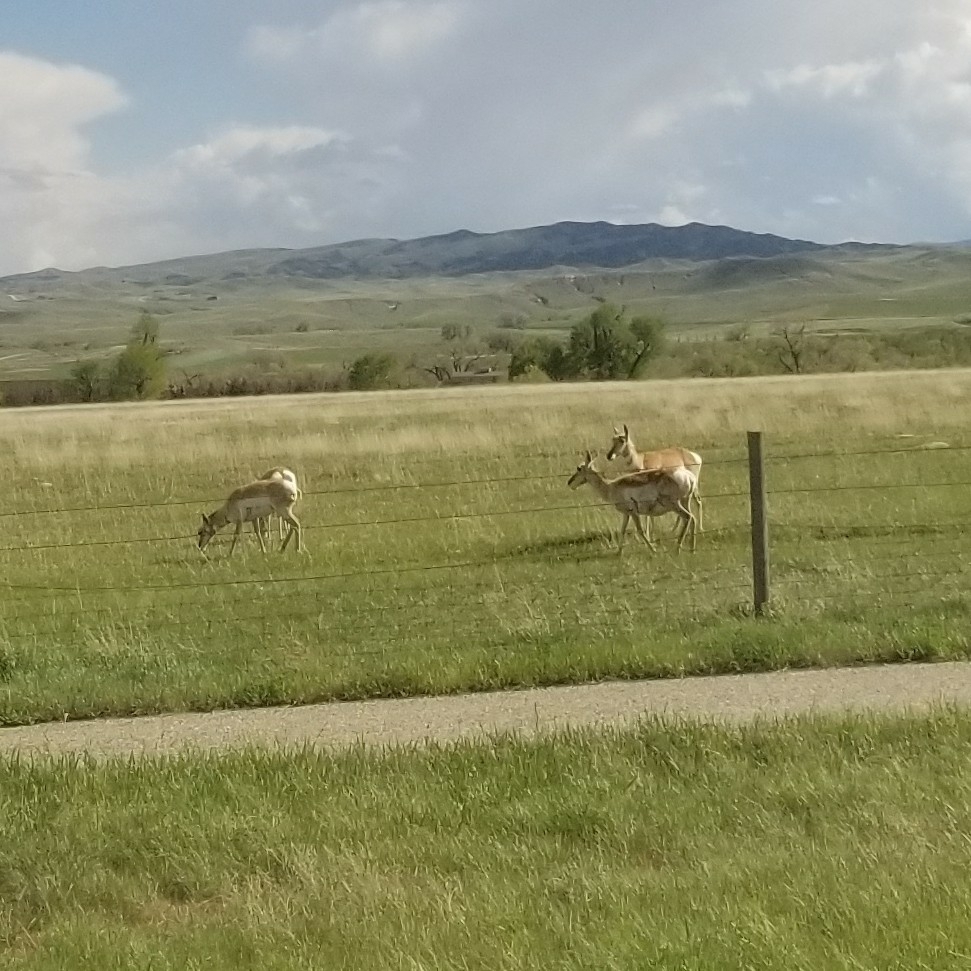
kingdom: Animalia
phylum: Chordata
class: Mammalia
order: Artiodactyla
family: Antilocapridae
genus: Antilocapra
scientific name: Antilocapra americana
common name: Pronghorn
